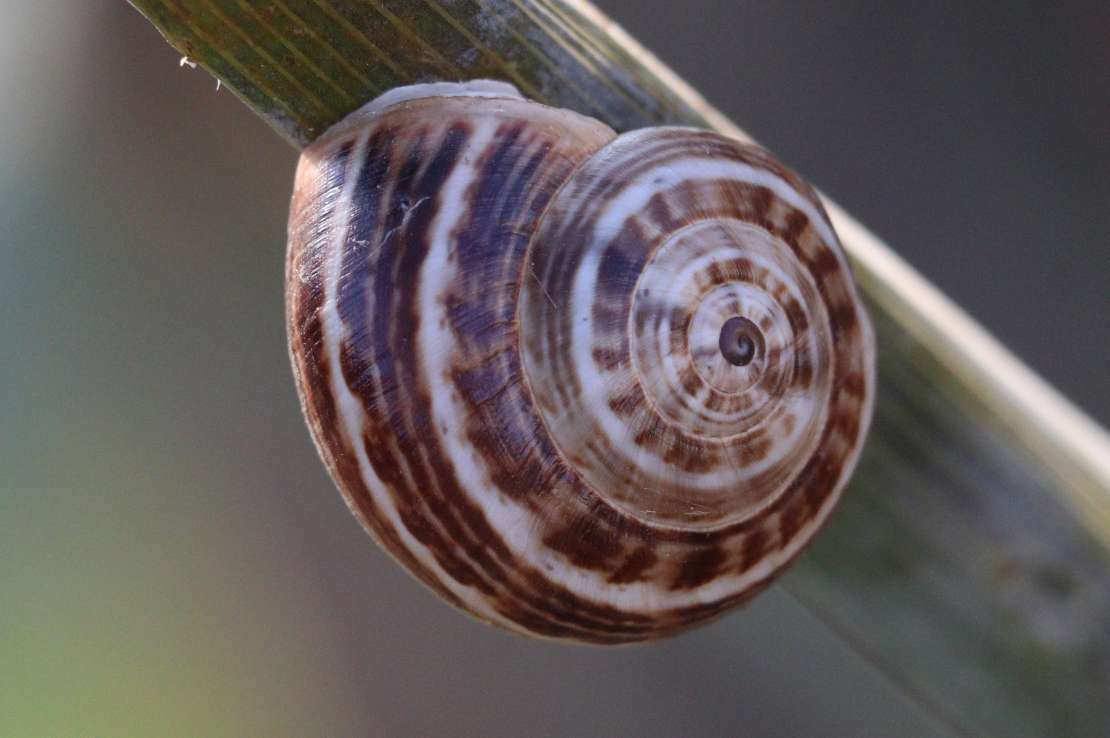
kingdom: Animalia
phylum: Mollusca
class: Gastropoda
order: Stylommatophora
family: Helicidae
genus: Theba
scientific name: Theba pisana
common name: White snail
